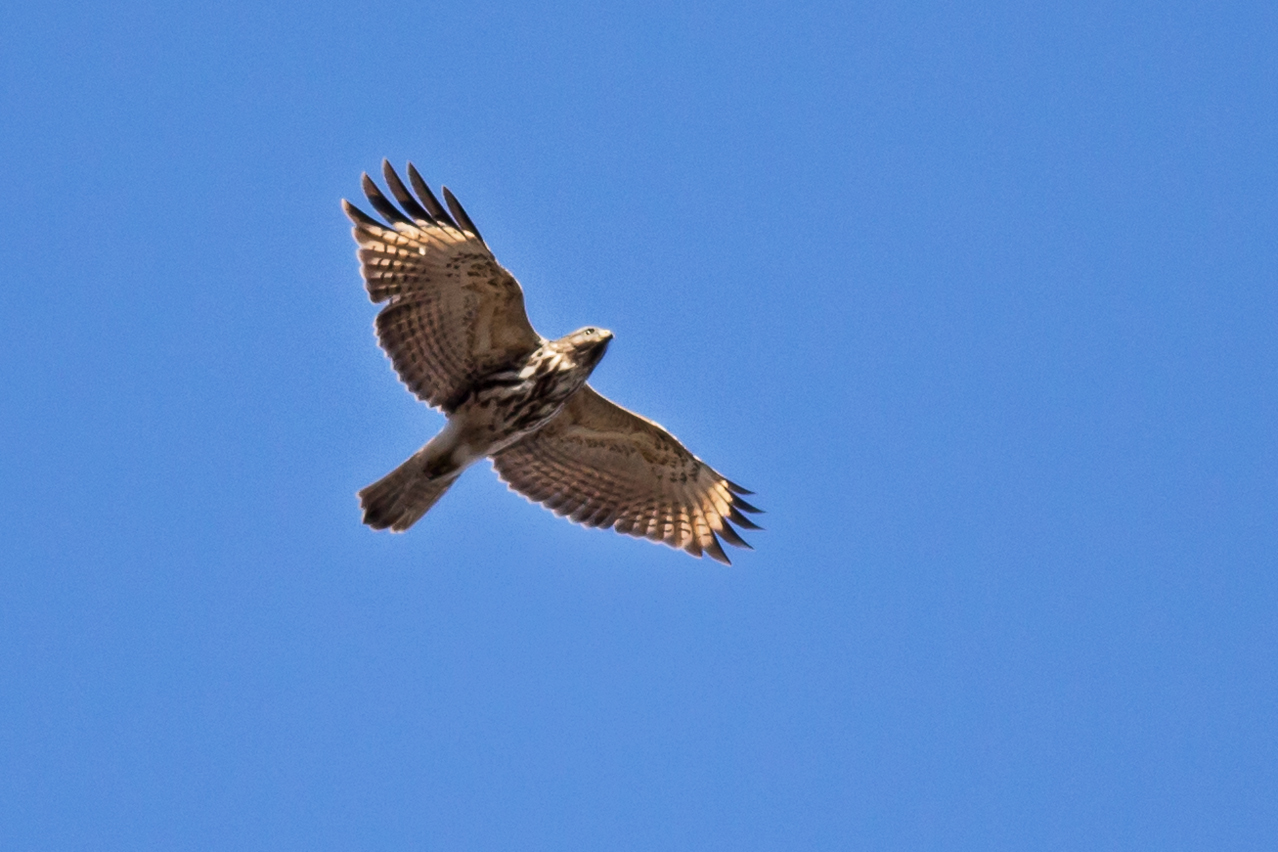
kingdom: Animalia
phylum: Chordata
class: Aves
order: Accipitriformes
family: Accipitridae
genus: Buteo
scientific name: Buteo lineatus
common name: Red-shouldered hawk
